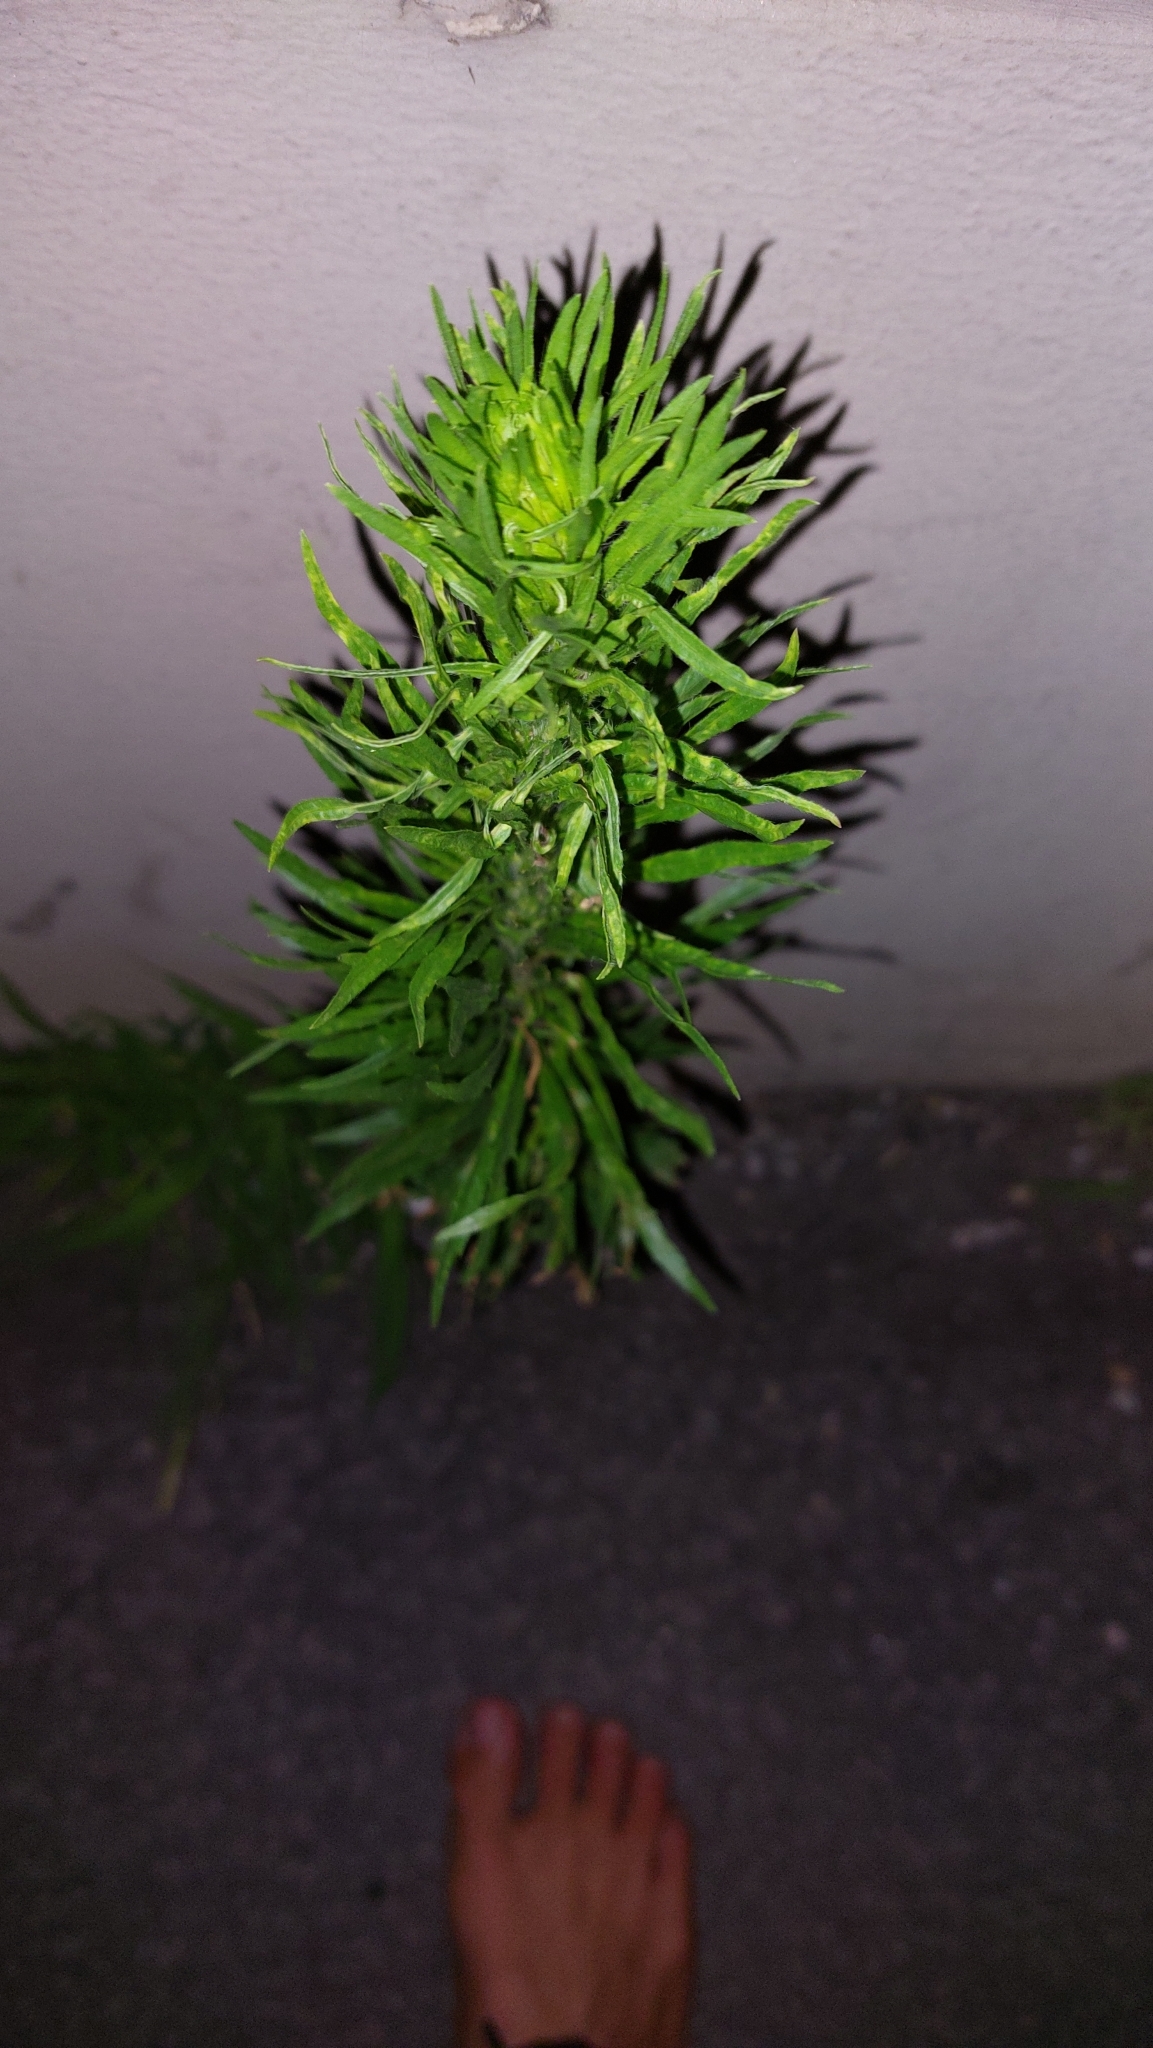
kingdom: Plantae
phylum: Tracheophyta
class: Magnoliopsida
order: Asterales
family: Asteraceae
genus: Erigeron
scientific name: Erigeron canadensis
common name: Canadian fleabane
